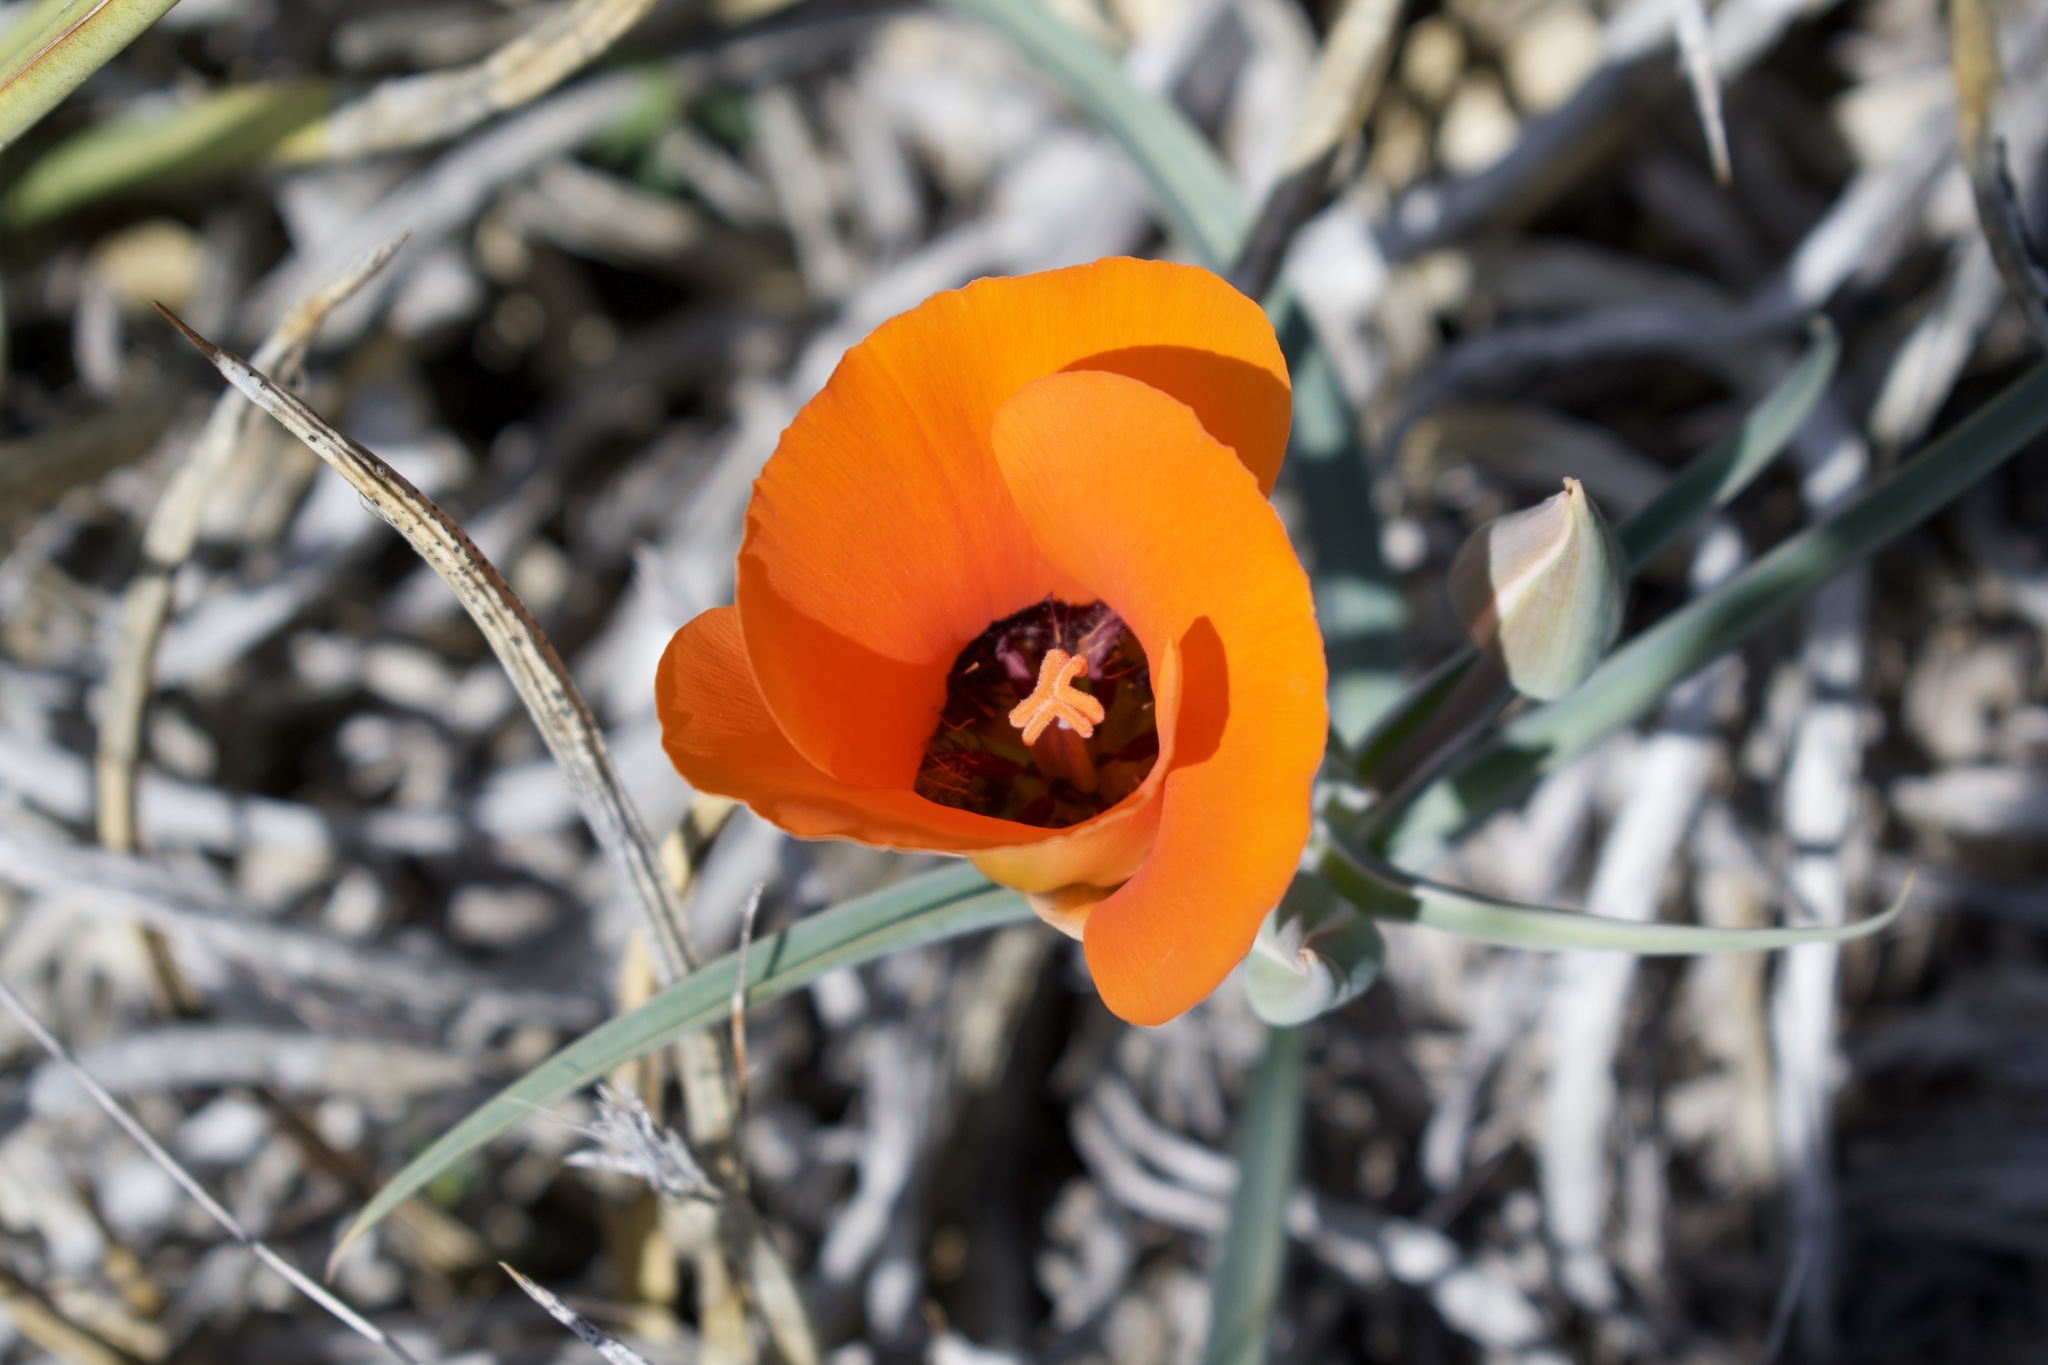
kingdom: Plantae
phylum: Tracheophyta
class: Liliopsida
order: Liliales
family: Liliaceae
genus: Calochortus
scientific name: Calochortus kennedyi
